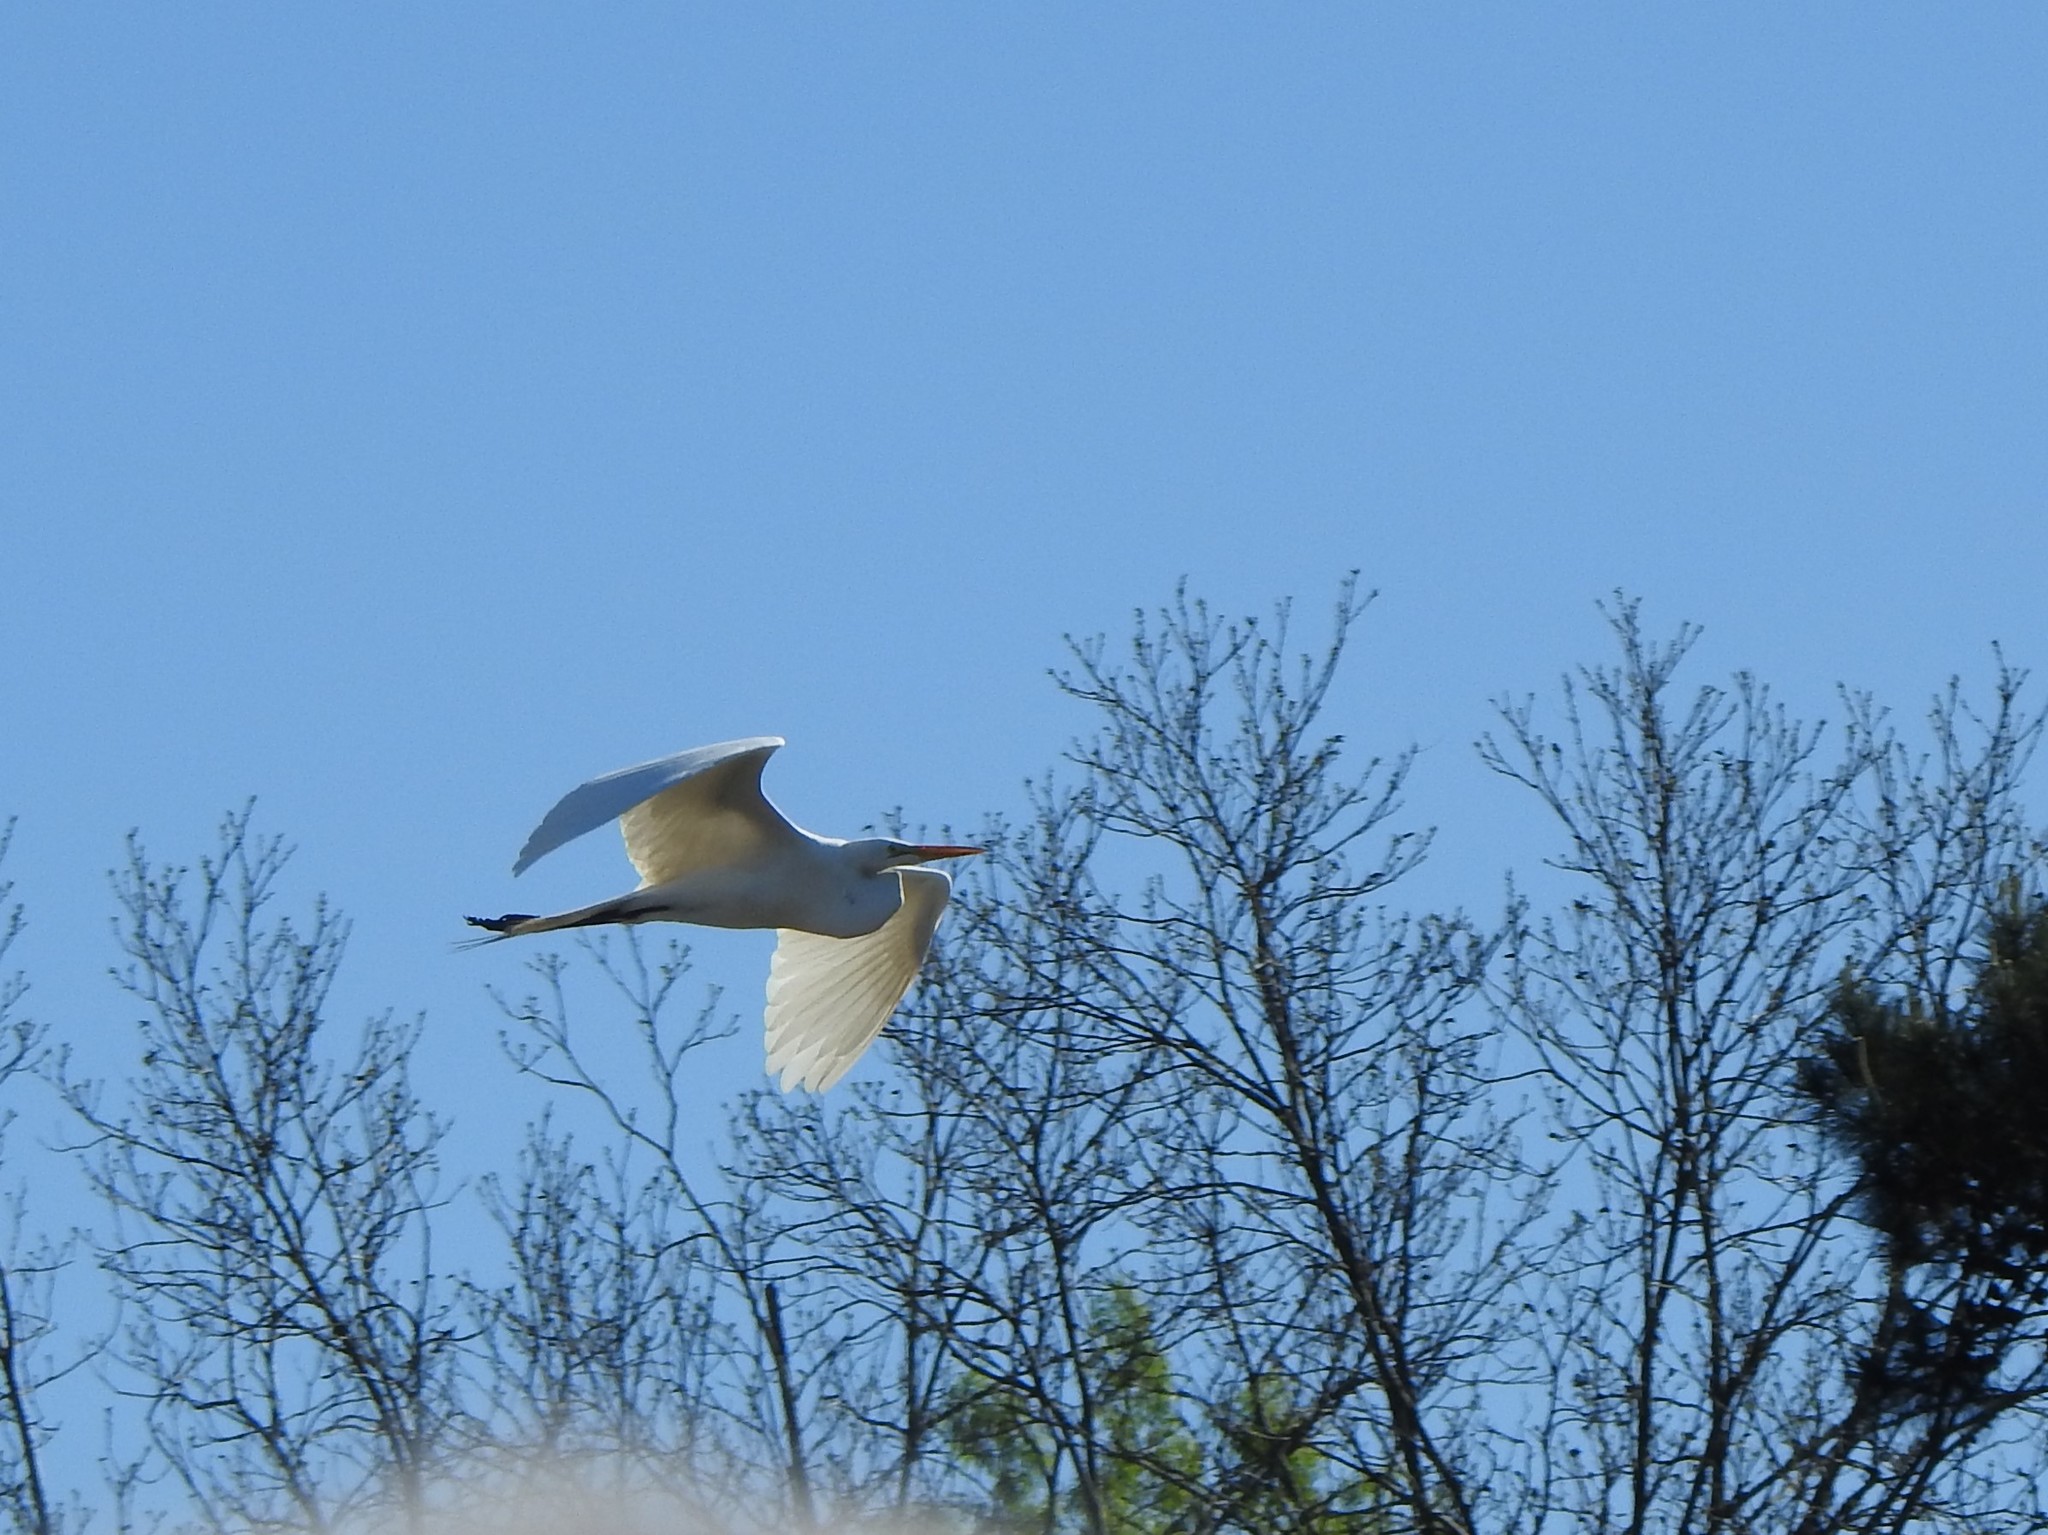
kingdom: Animalia
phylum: Chordata
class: Aves
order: Pelecaniformes
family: Ardeidae
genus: Ardea
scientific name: Ardea alba
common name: Great egret
